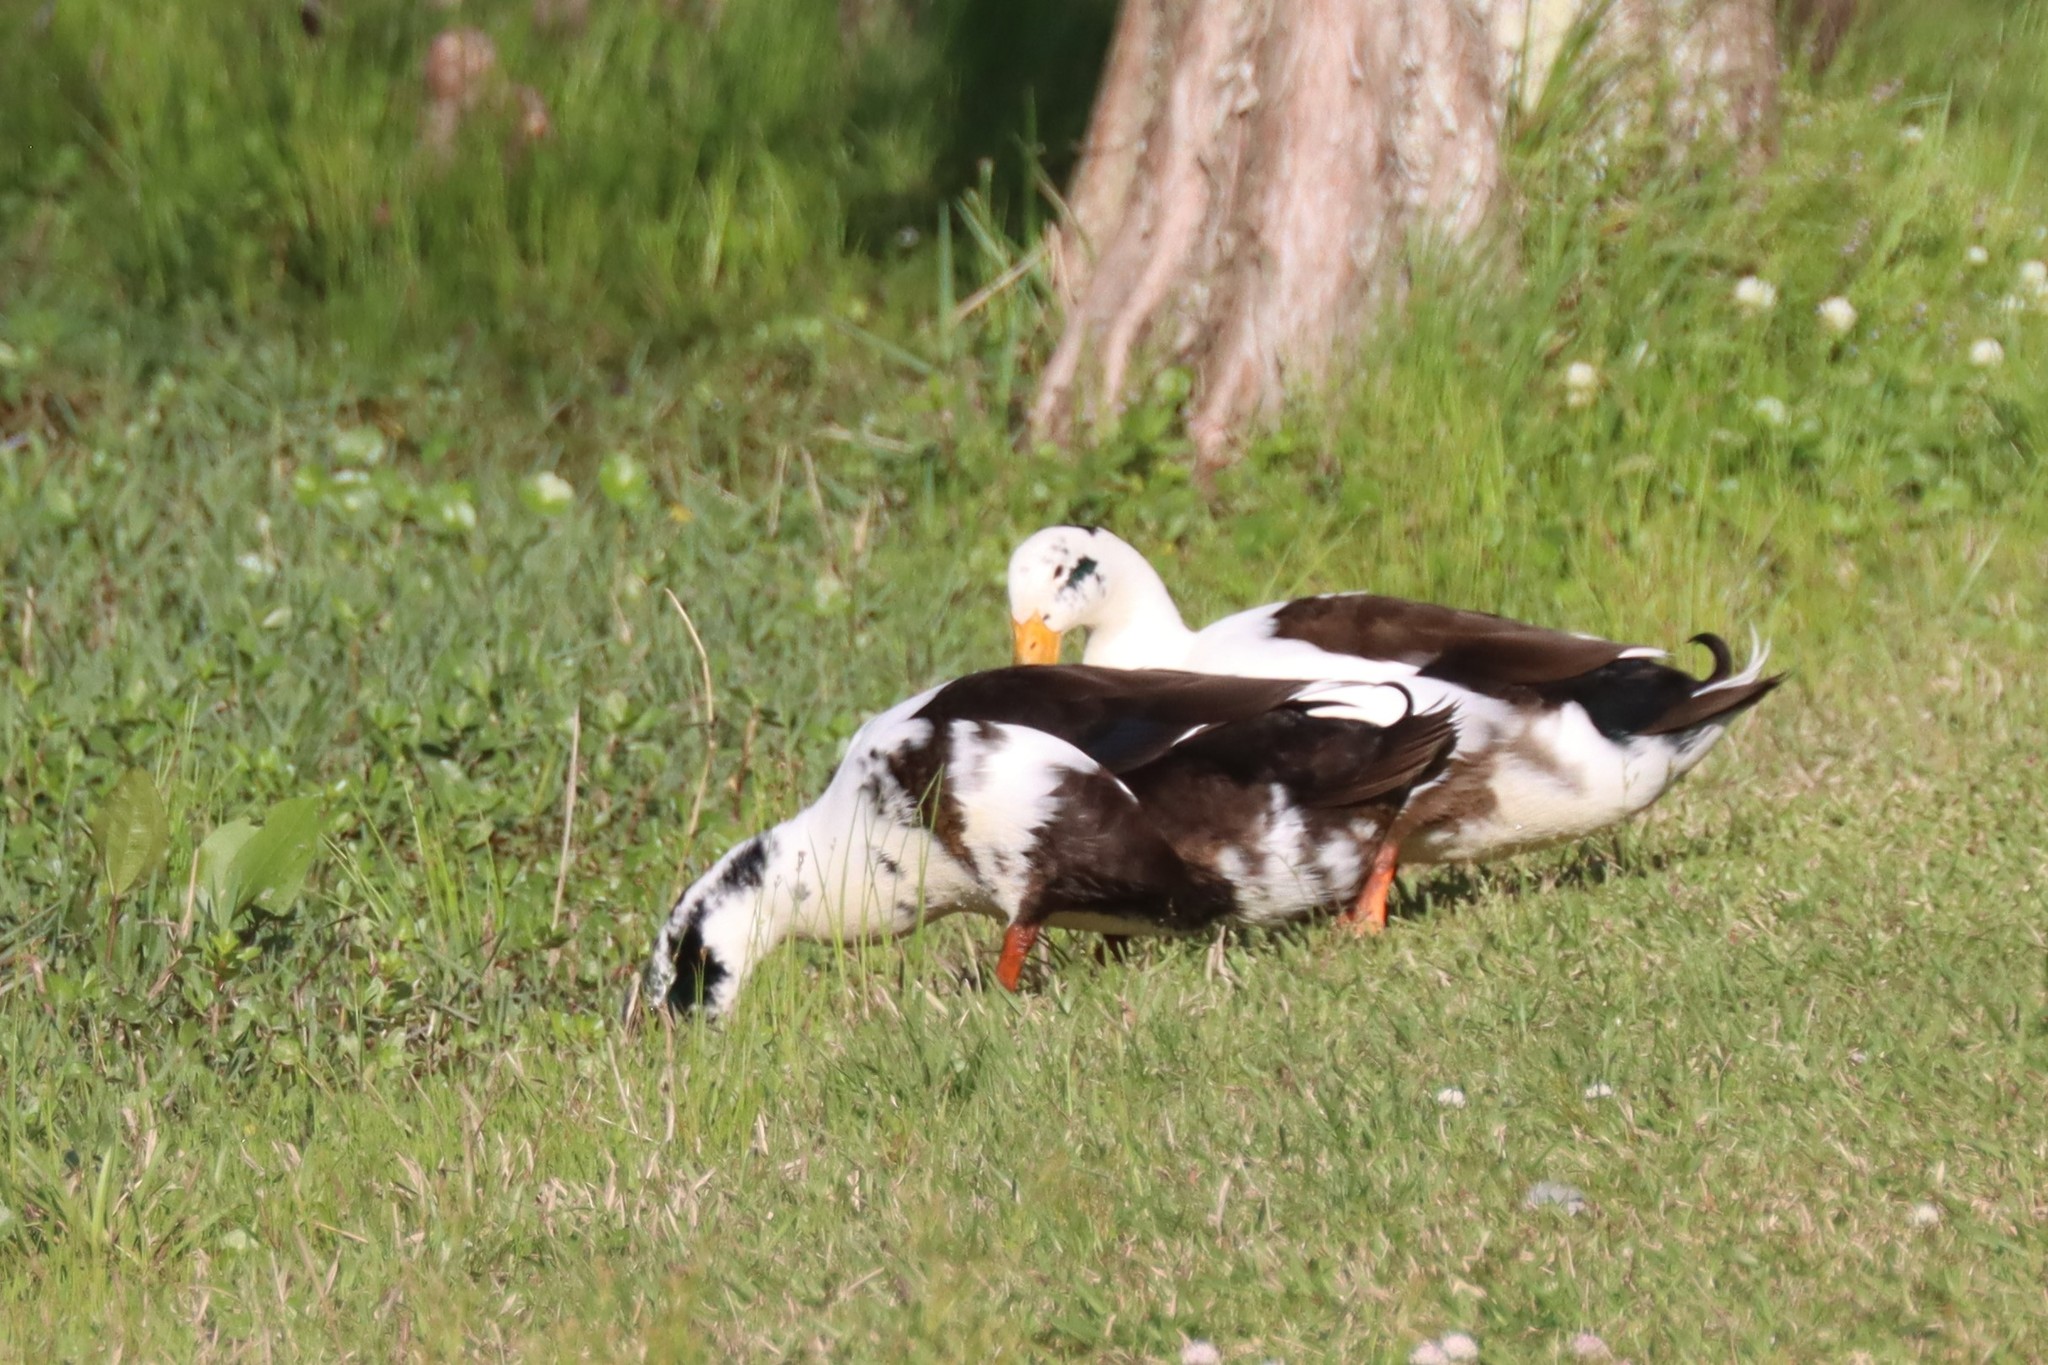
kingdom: Animalia
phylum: Chordata
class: Aves
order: Anseriformes
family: Anatidae
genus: Anas
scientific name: Anas platyrhynchos
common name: Mallard
